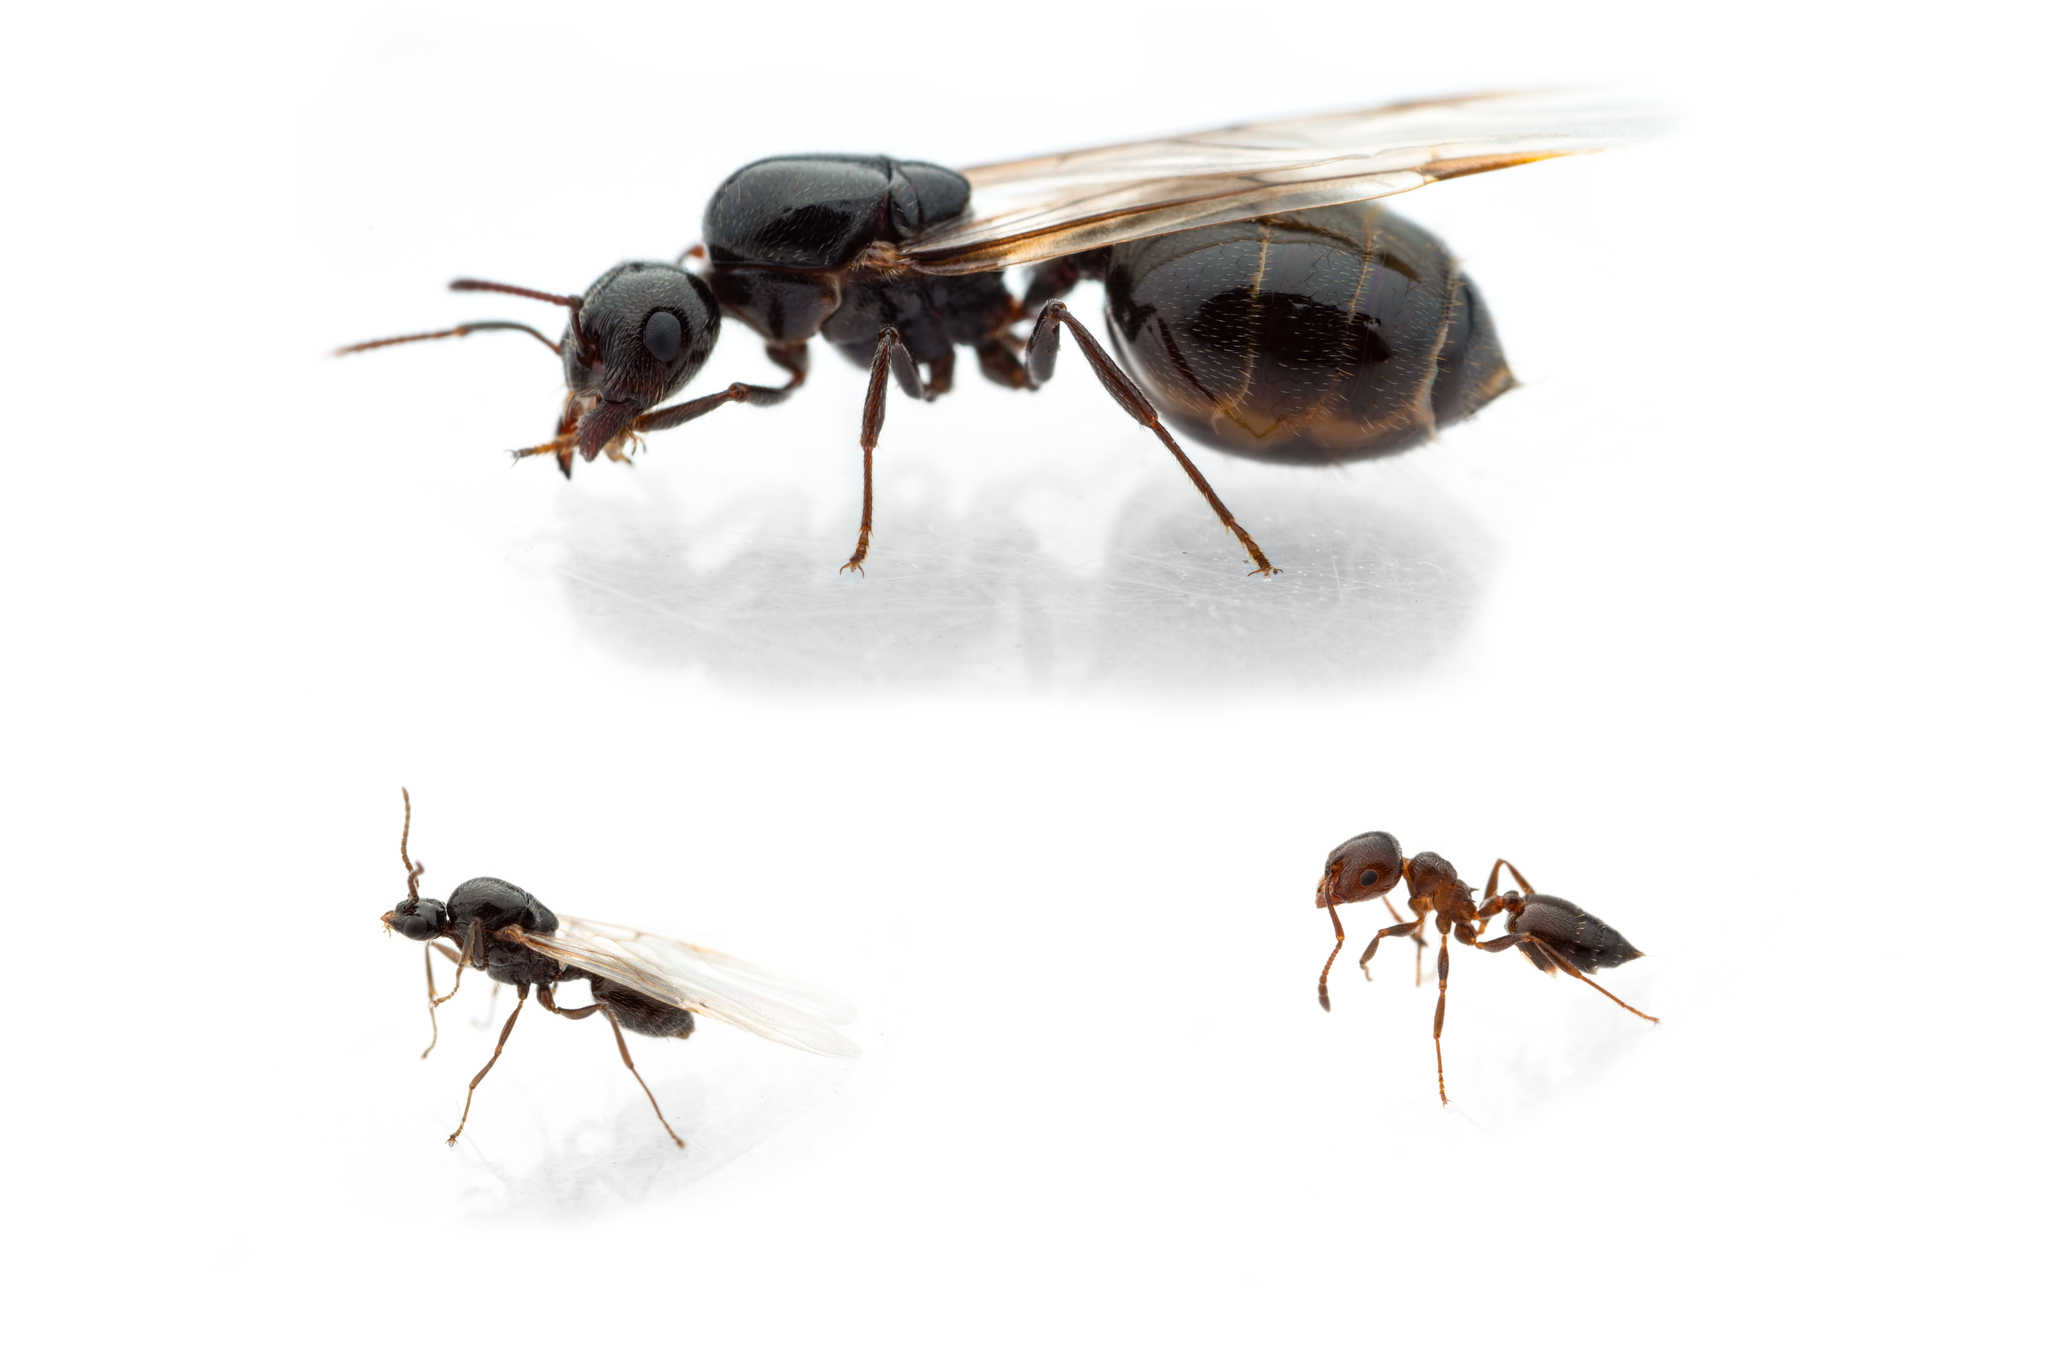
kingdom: Animalia
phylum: Arthropoda
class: Insecta
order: Hymenoptera
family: Formicidae
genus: Crematogaster
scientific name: Crematogaster auberti
